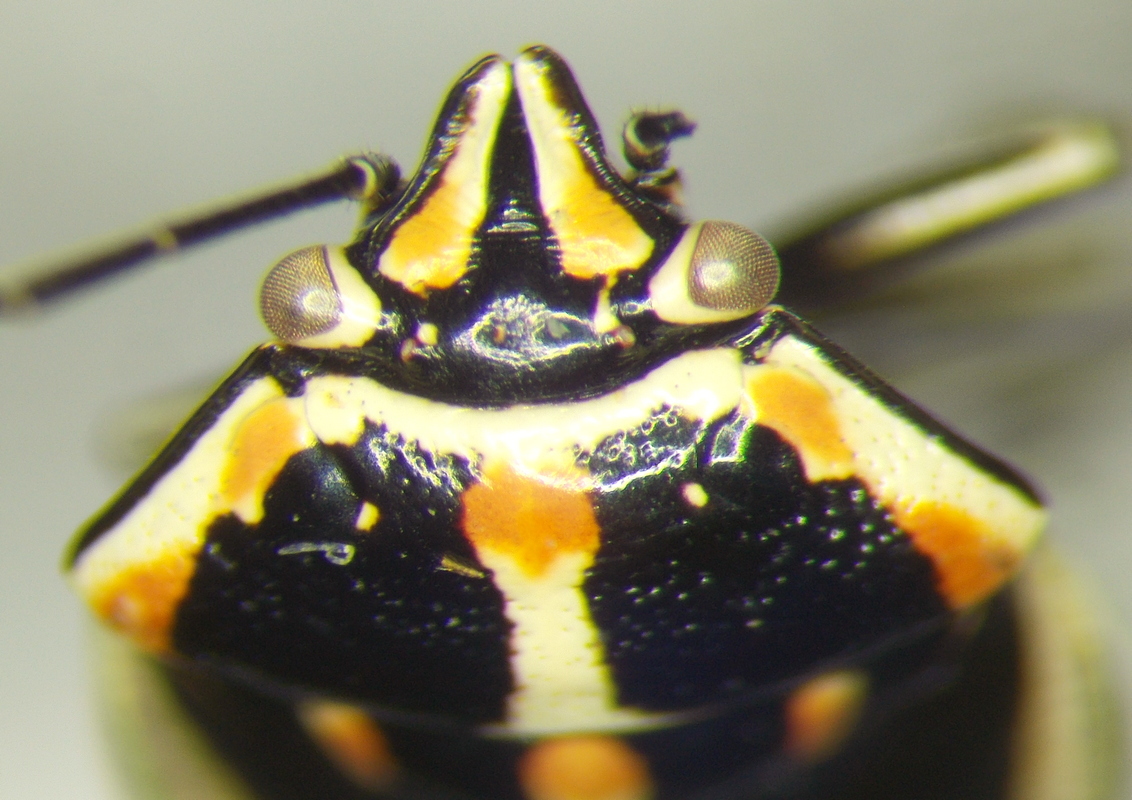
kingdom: Animalia
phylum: Arthropoda
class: Insecta
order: Hemiptera
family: Pentatomidae
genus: Bagrada
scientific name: Bagrada hilaris
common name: Bagrada bug
